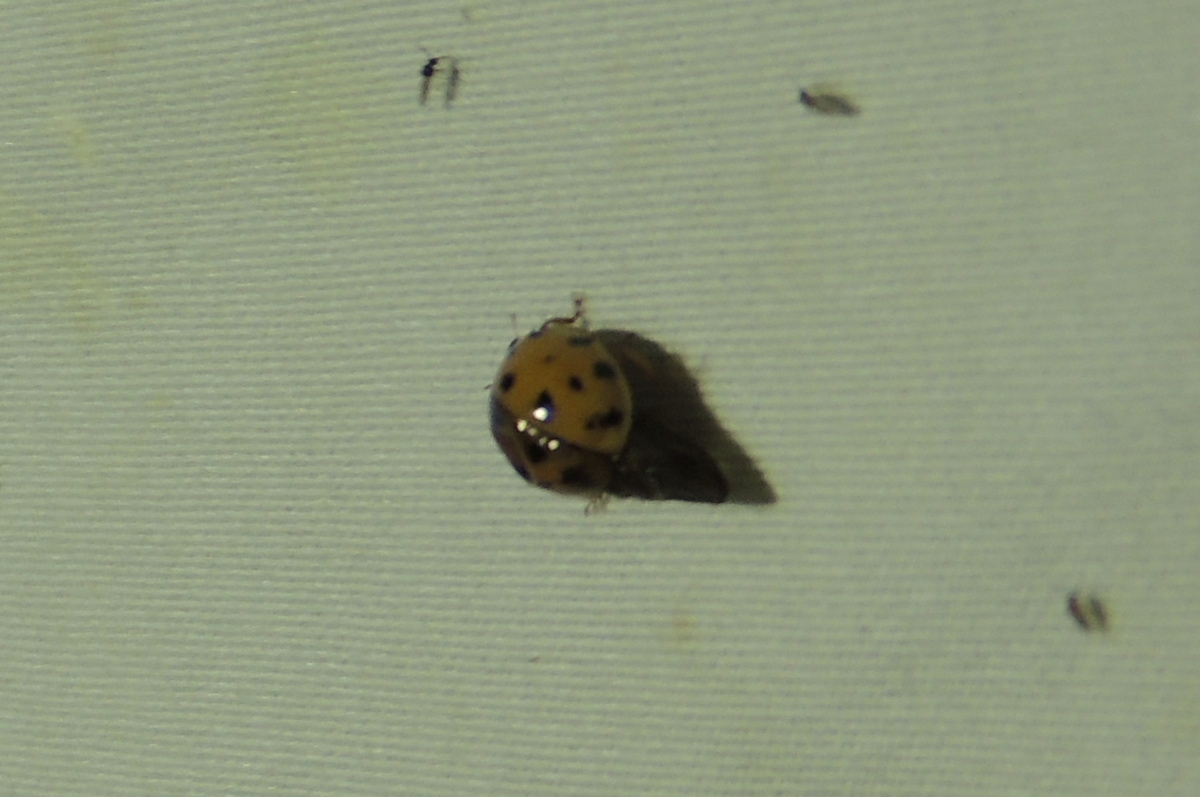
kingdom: Animalia
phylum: Arthropoda
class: Insecta
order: Coleoptera
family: Coccinellidae
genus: Harmonia
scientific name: Harmonia axyridis
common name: Harlequin ladybird
